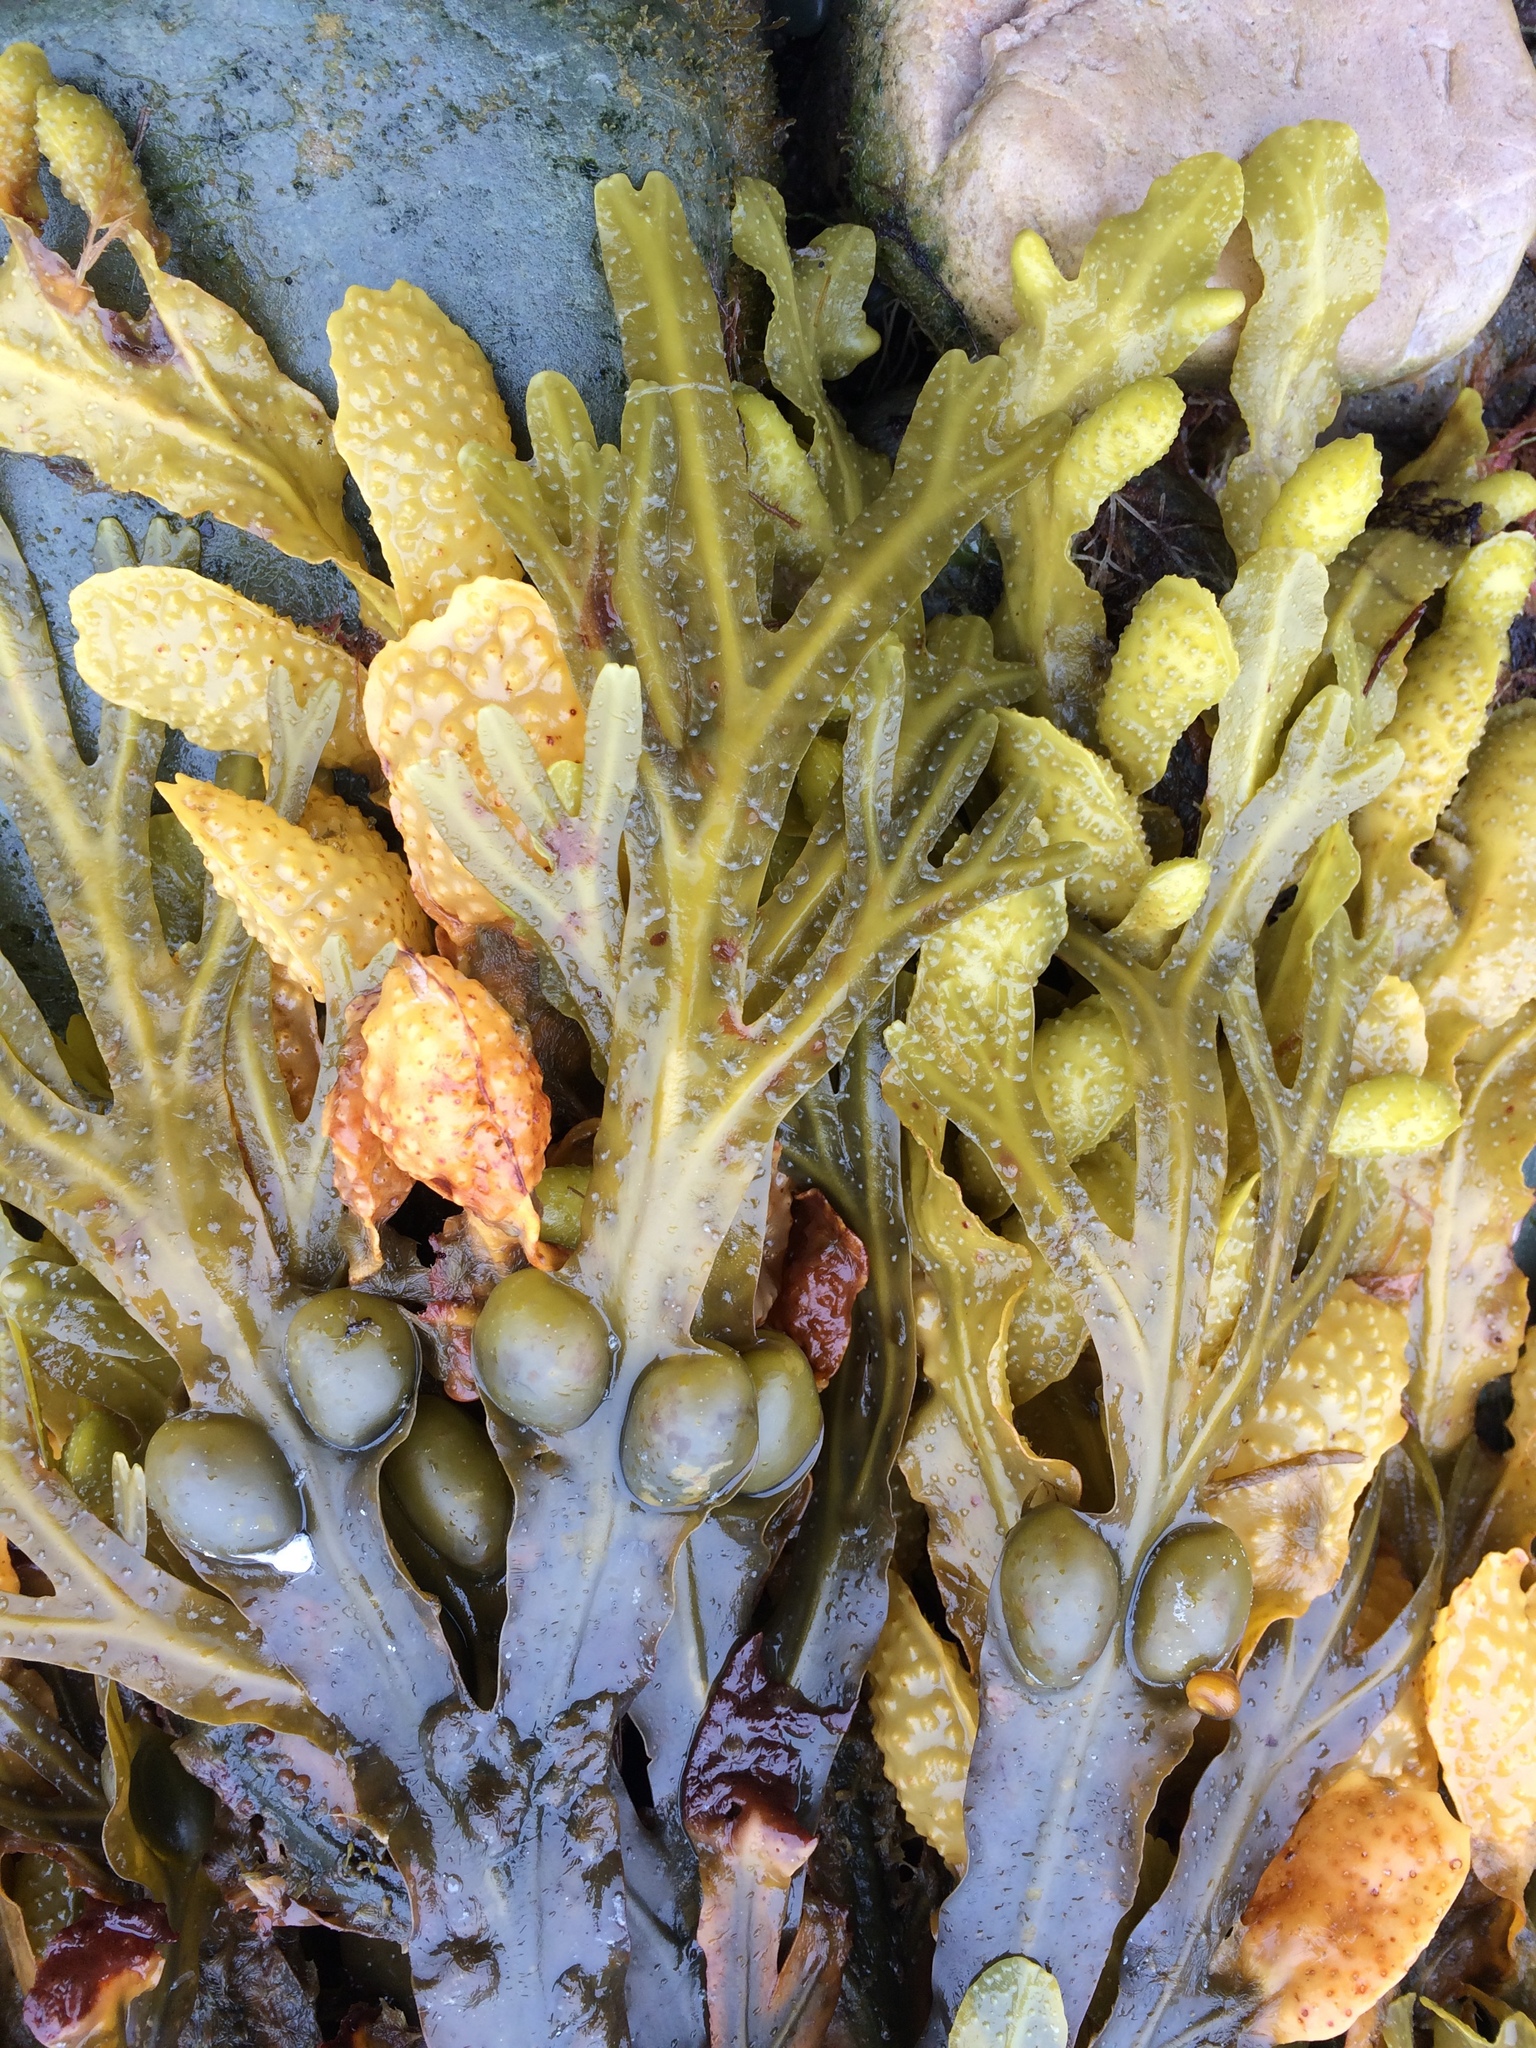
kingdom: Chromista
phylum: Ochrophyta
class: Phaeophyceae
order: Fucales
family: Fucaceae
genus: Fucus
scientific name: Fucus vesiculosus
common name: Bladder wrack
